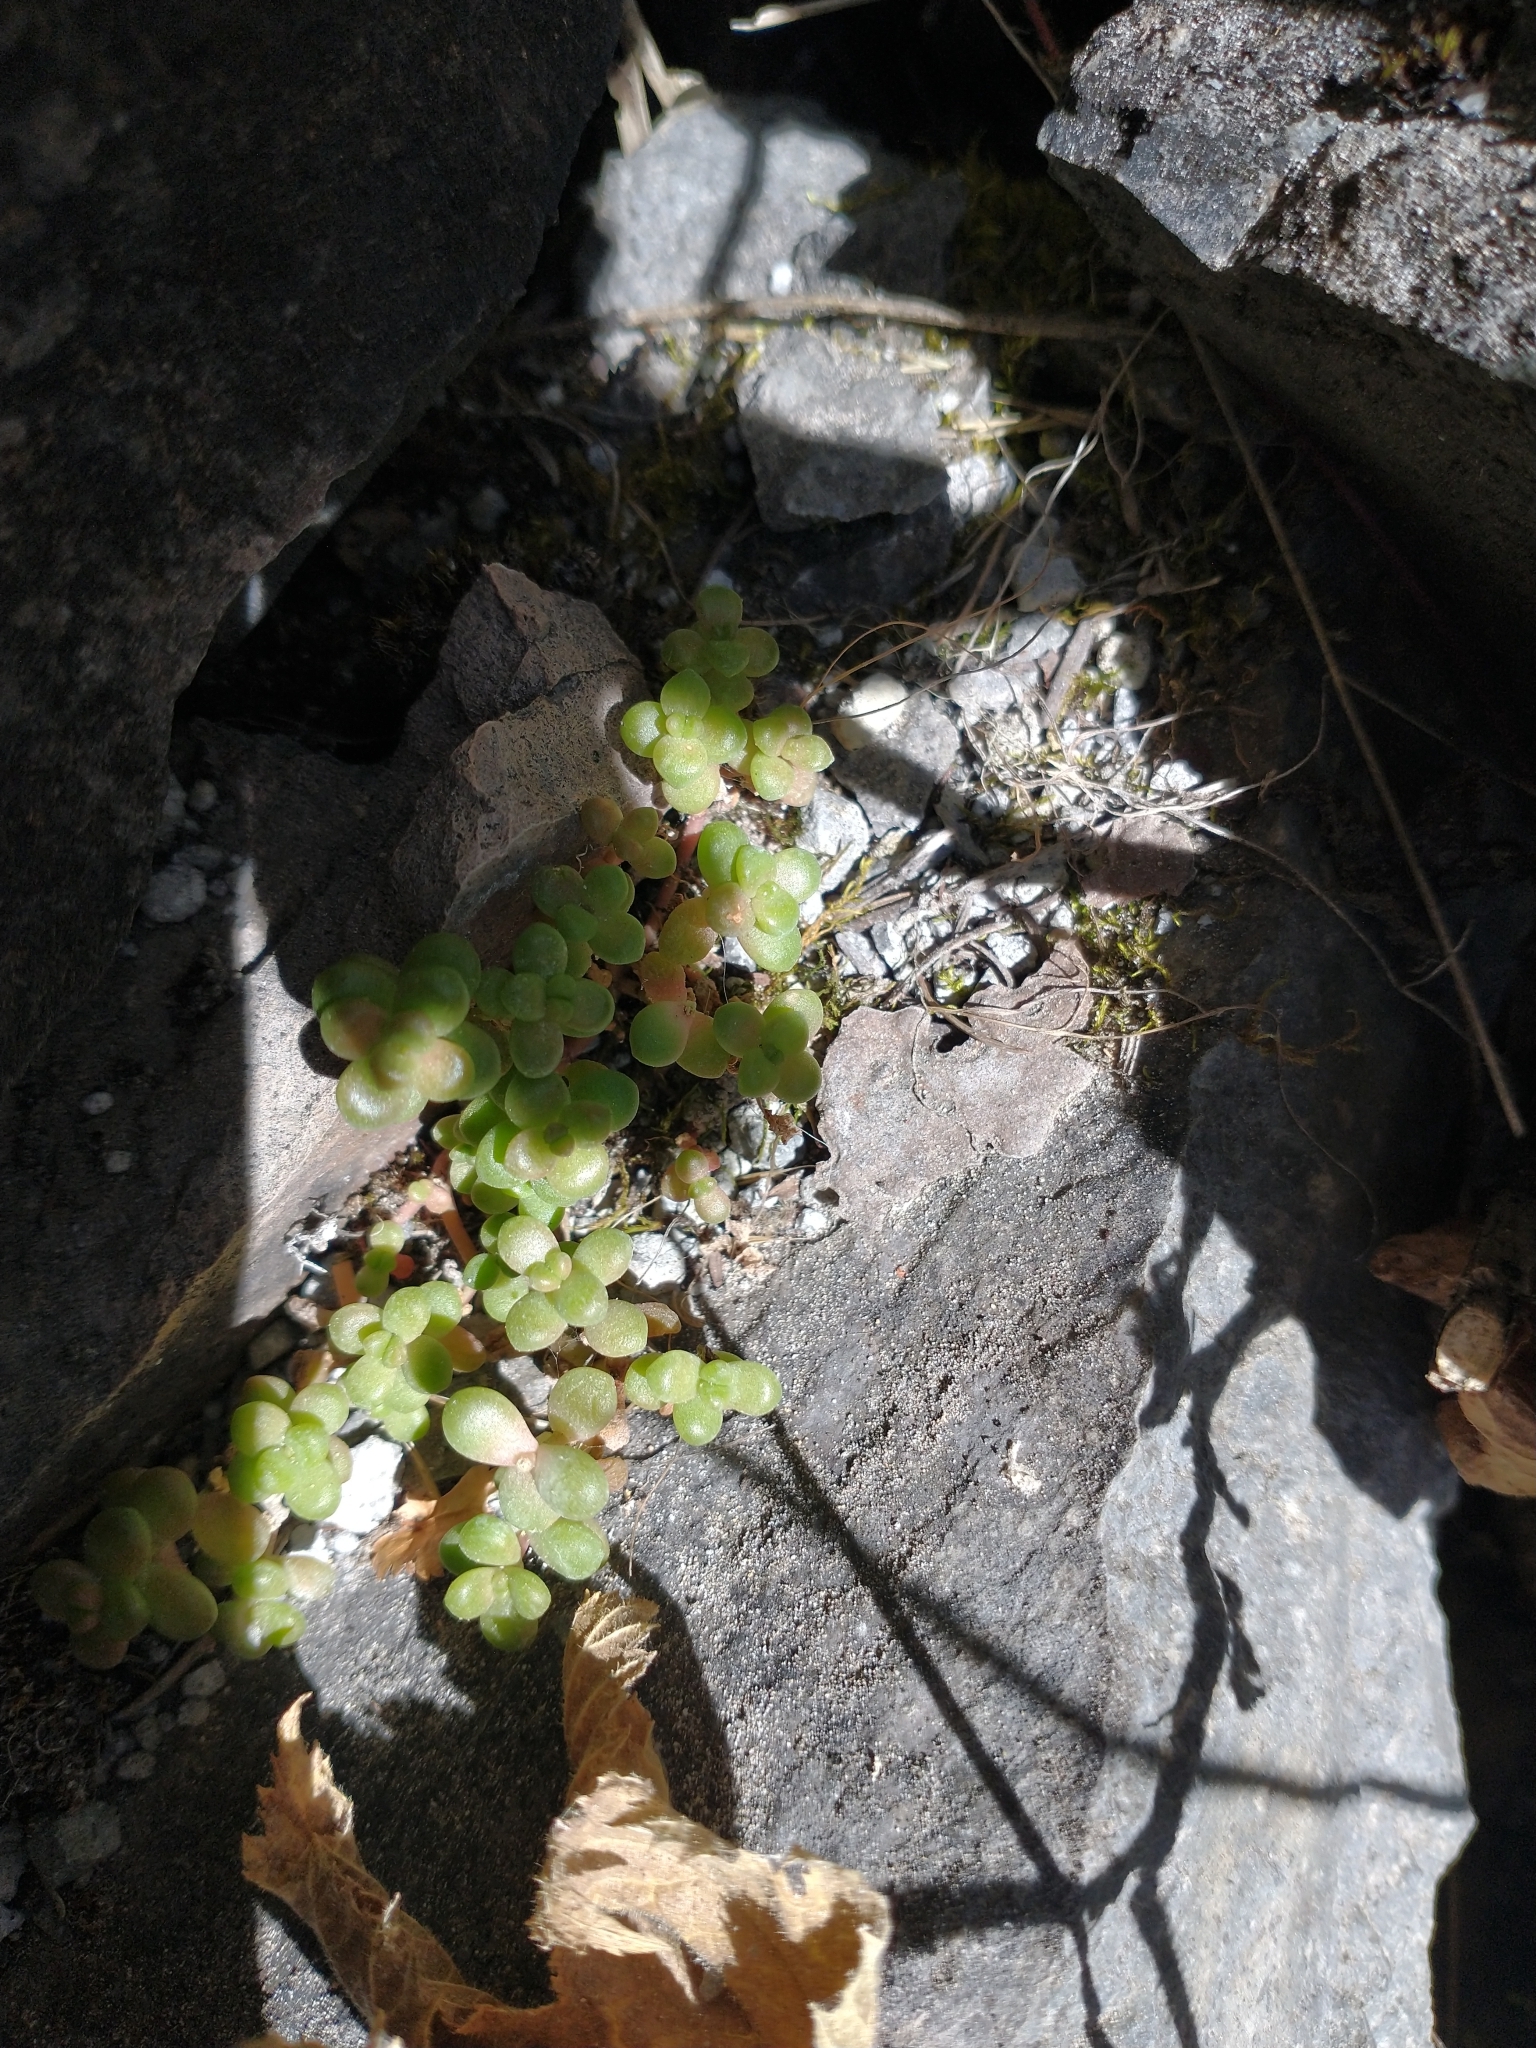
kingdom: Plantae
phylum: Tracheophyta
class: Magnoliopsida
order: Saxifragales
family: Crassulaceae
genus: Sedum
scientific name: Sedum divergens
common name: Cascade stonecrop
